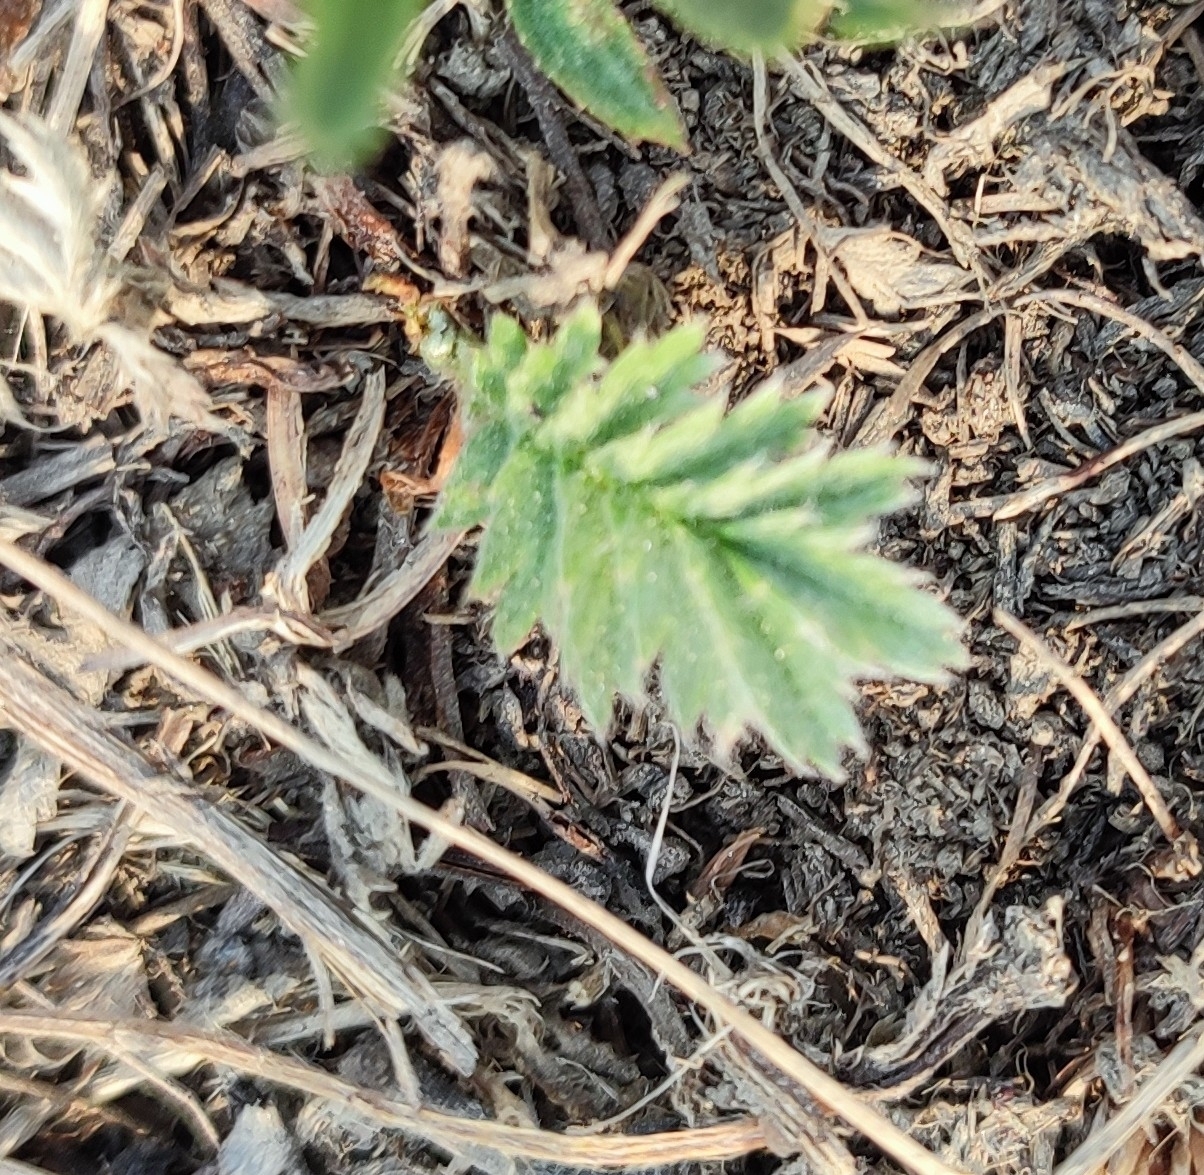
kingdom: Plantae
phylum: Tracheophyta
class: Magnoliopsida
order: Rosales
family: Rosaceae
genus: Argentina
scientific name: Argentina anserina
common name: Common silverweed
